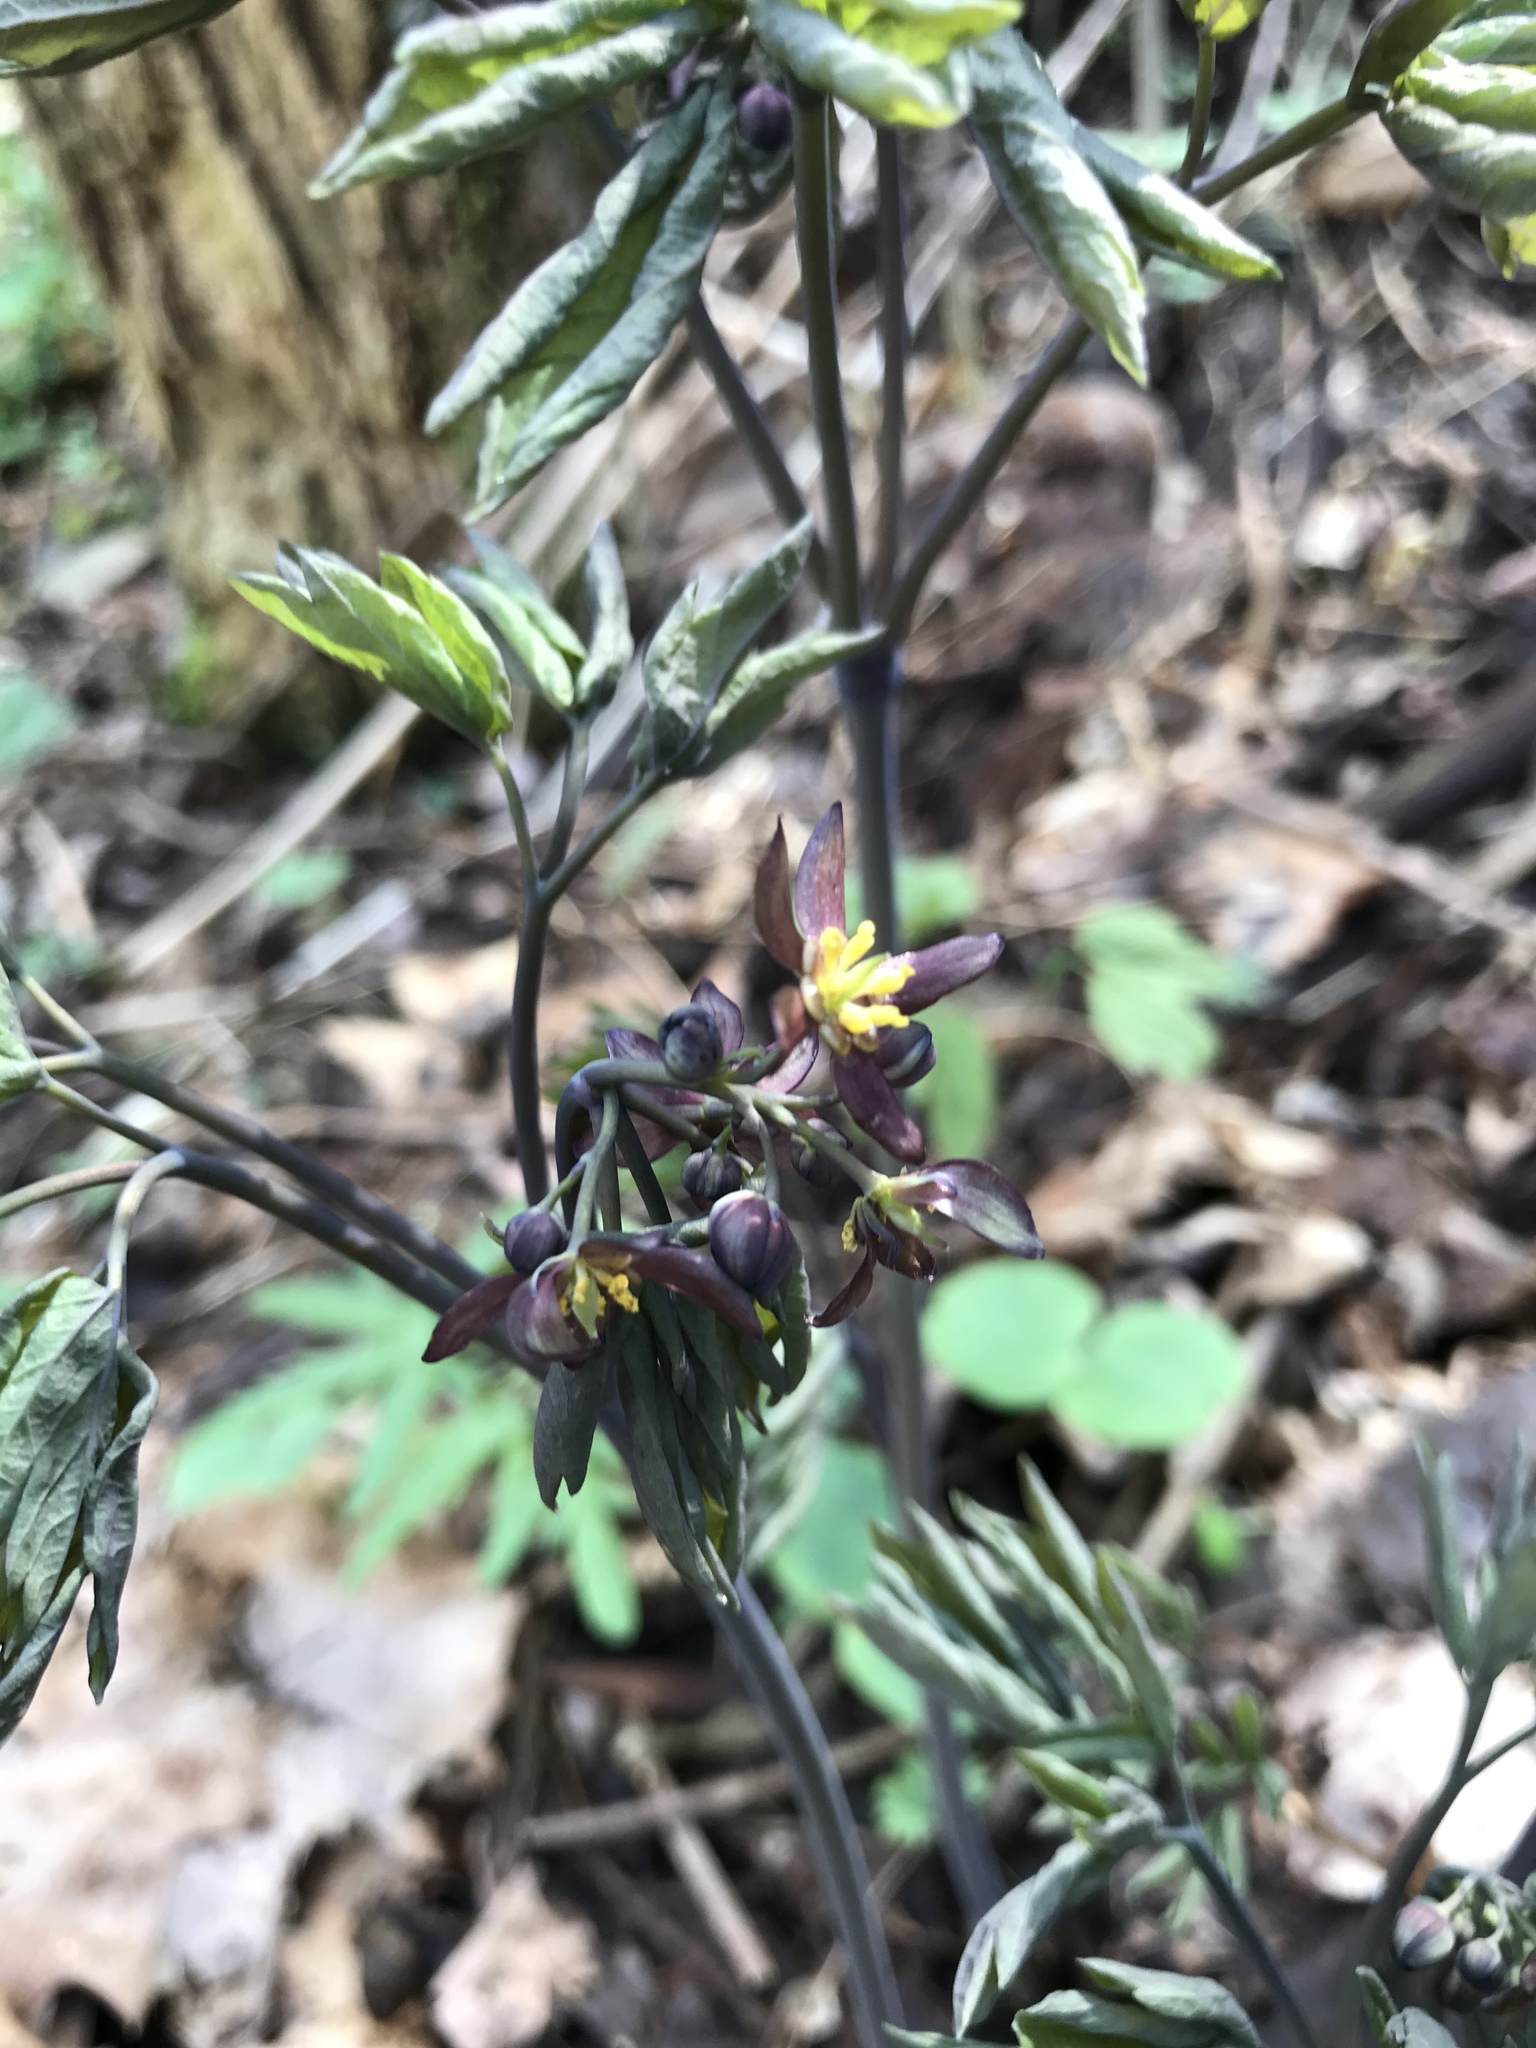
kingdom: Plantae
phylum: Tracheophyta
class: Magnoliopsida
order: Ranunculales
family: Berberidaceae
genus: Caulophyllum
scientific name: Caulophyllum giganteum
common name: Blue cohosh
